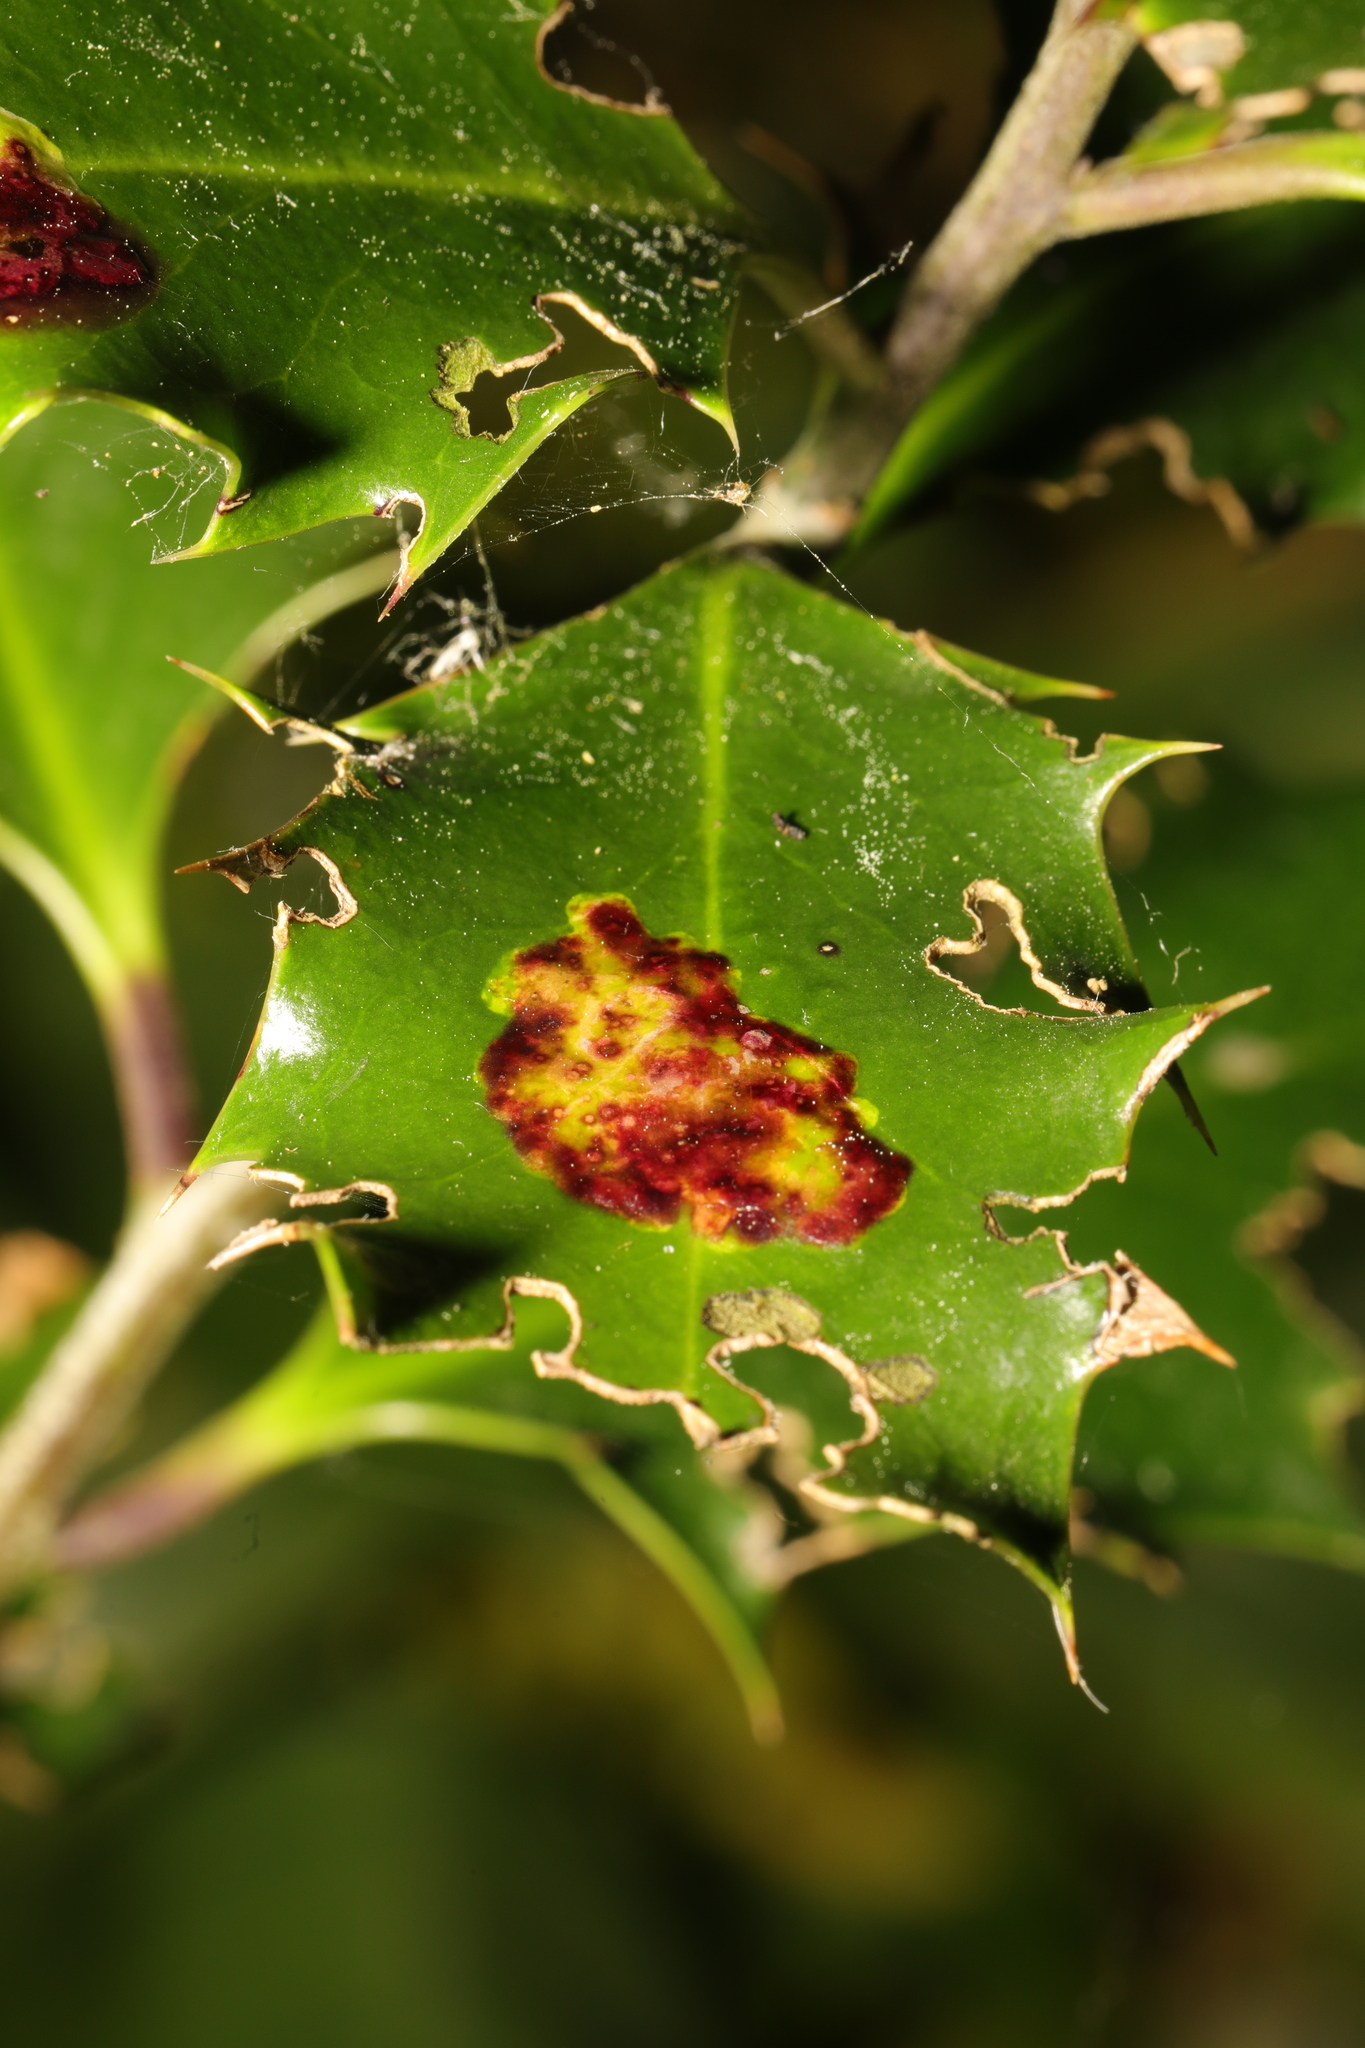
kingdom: Animalia
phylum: Arthropoda
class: Insecta
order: Diptera
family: Agromyzidae
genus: Phytomyza
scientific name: Phytomyza ilicis
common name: Holly leafminer
